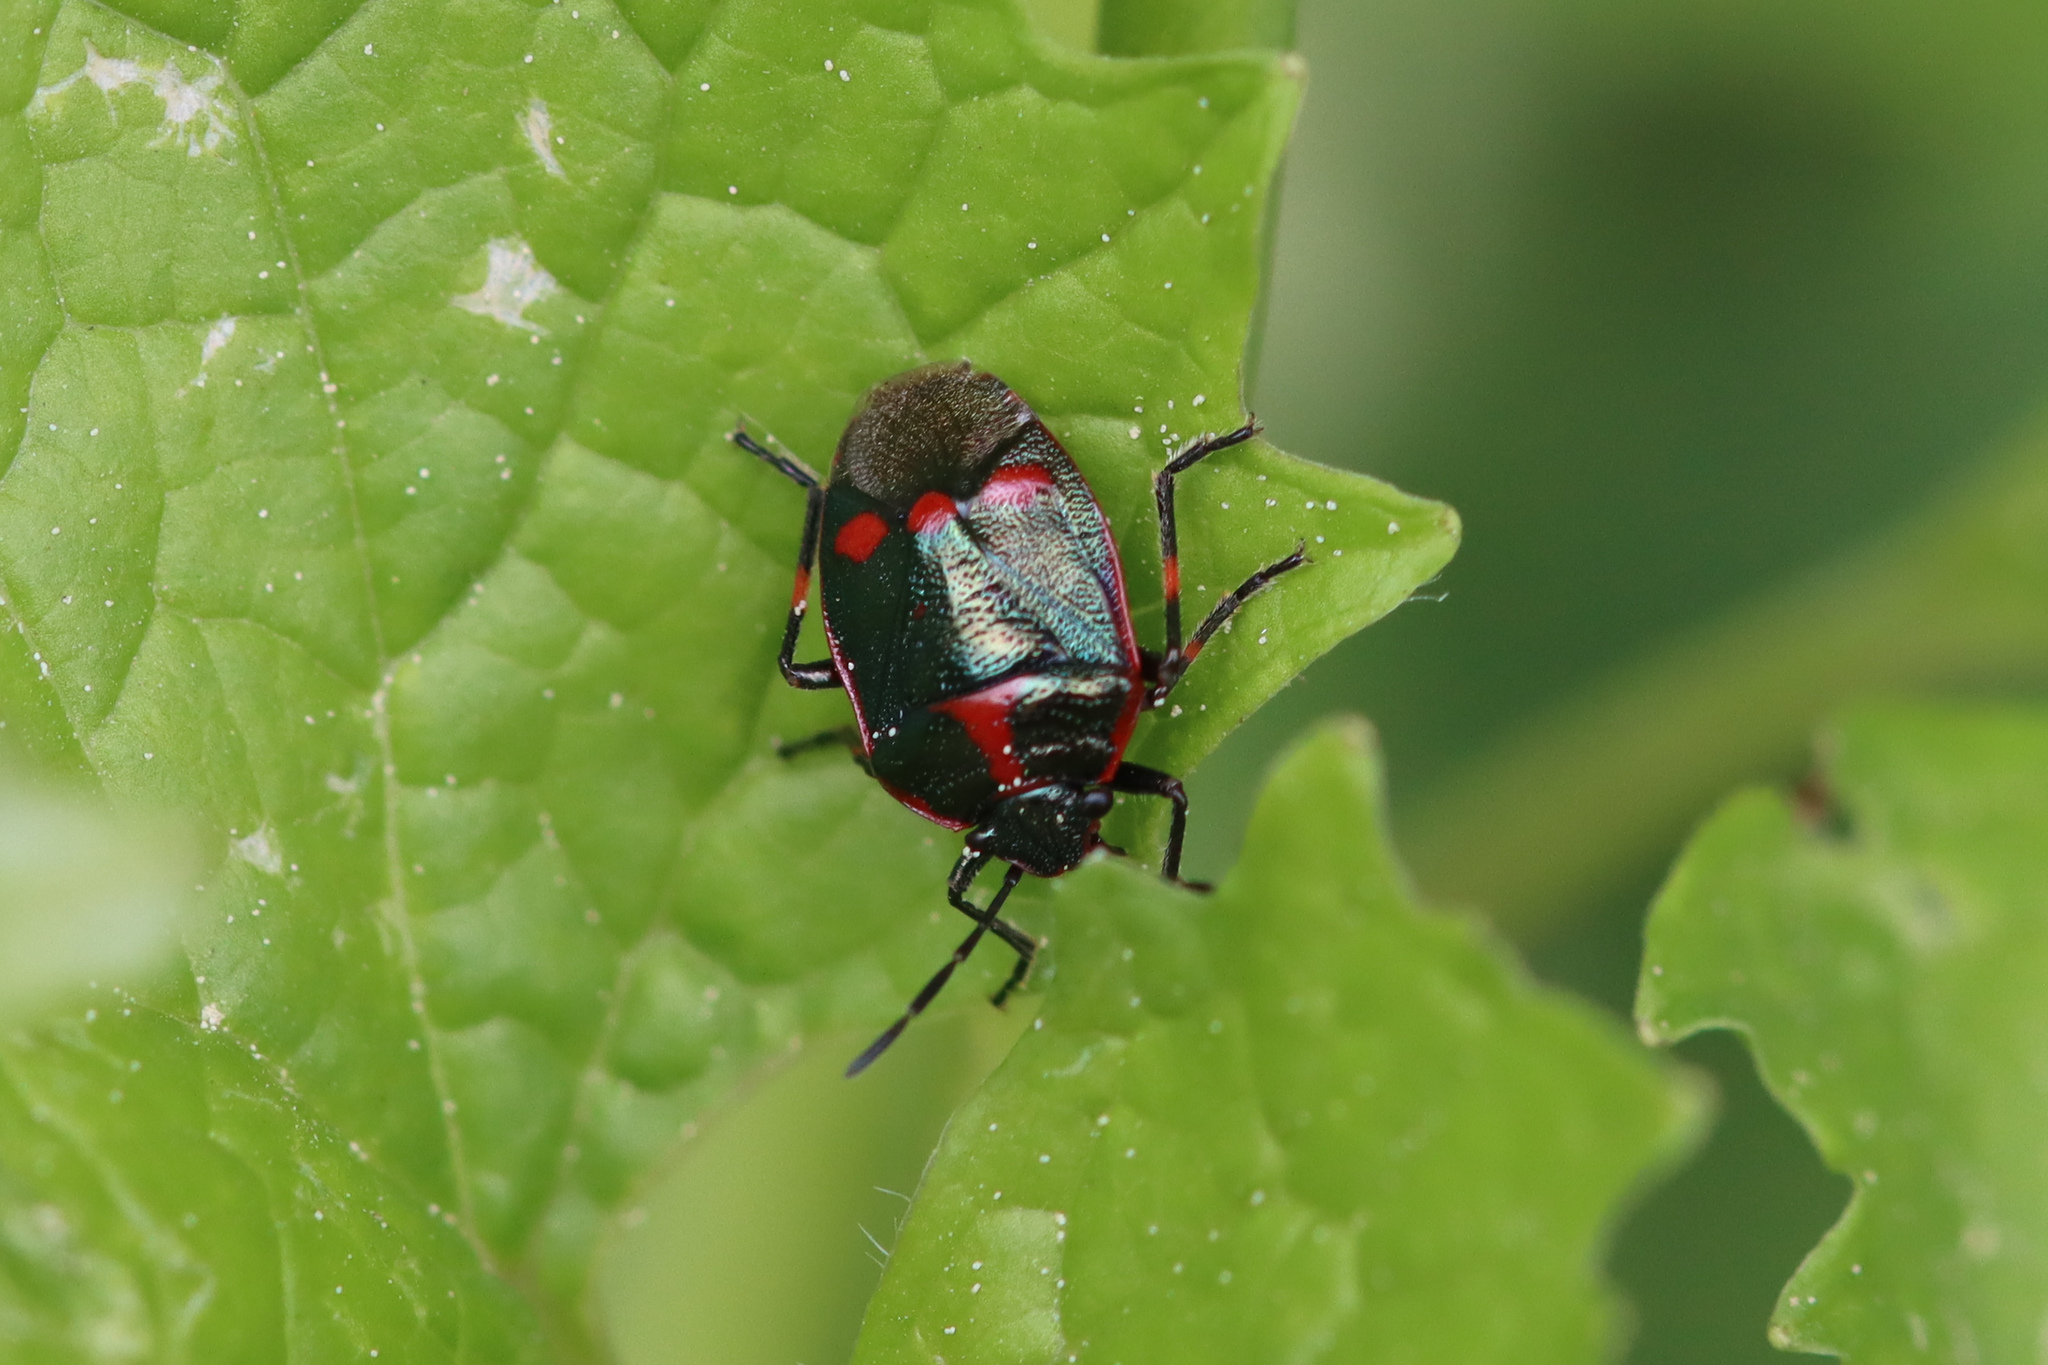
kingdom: Animalia
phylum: Arthropoda
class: Insecta
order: Hemiptera
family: Pentatomidae
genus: Eurydema
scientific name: Eurydema oleracea
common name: Cabbage bug
